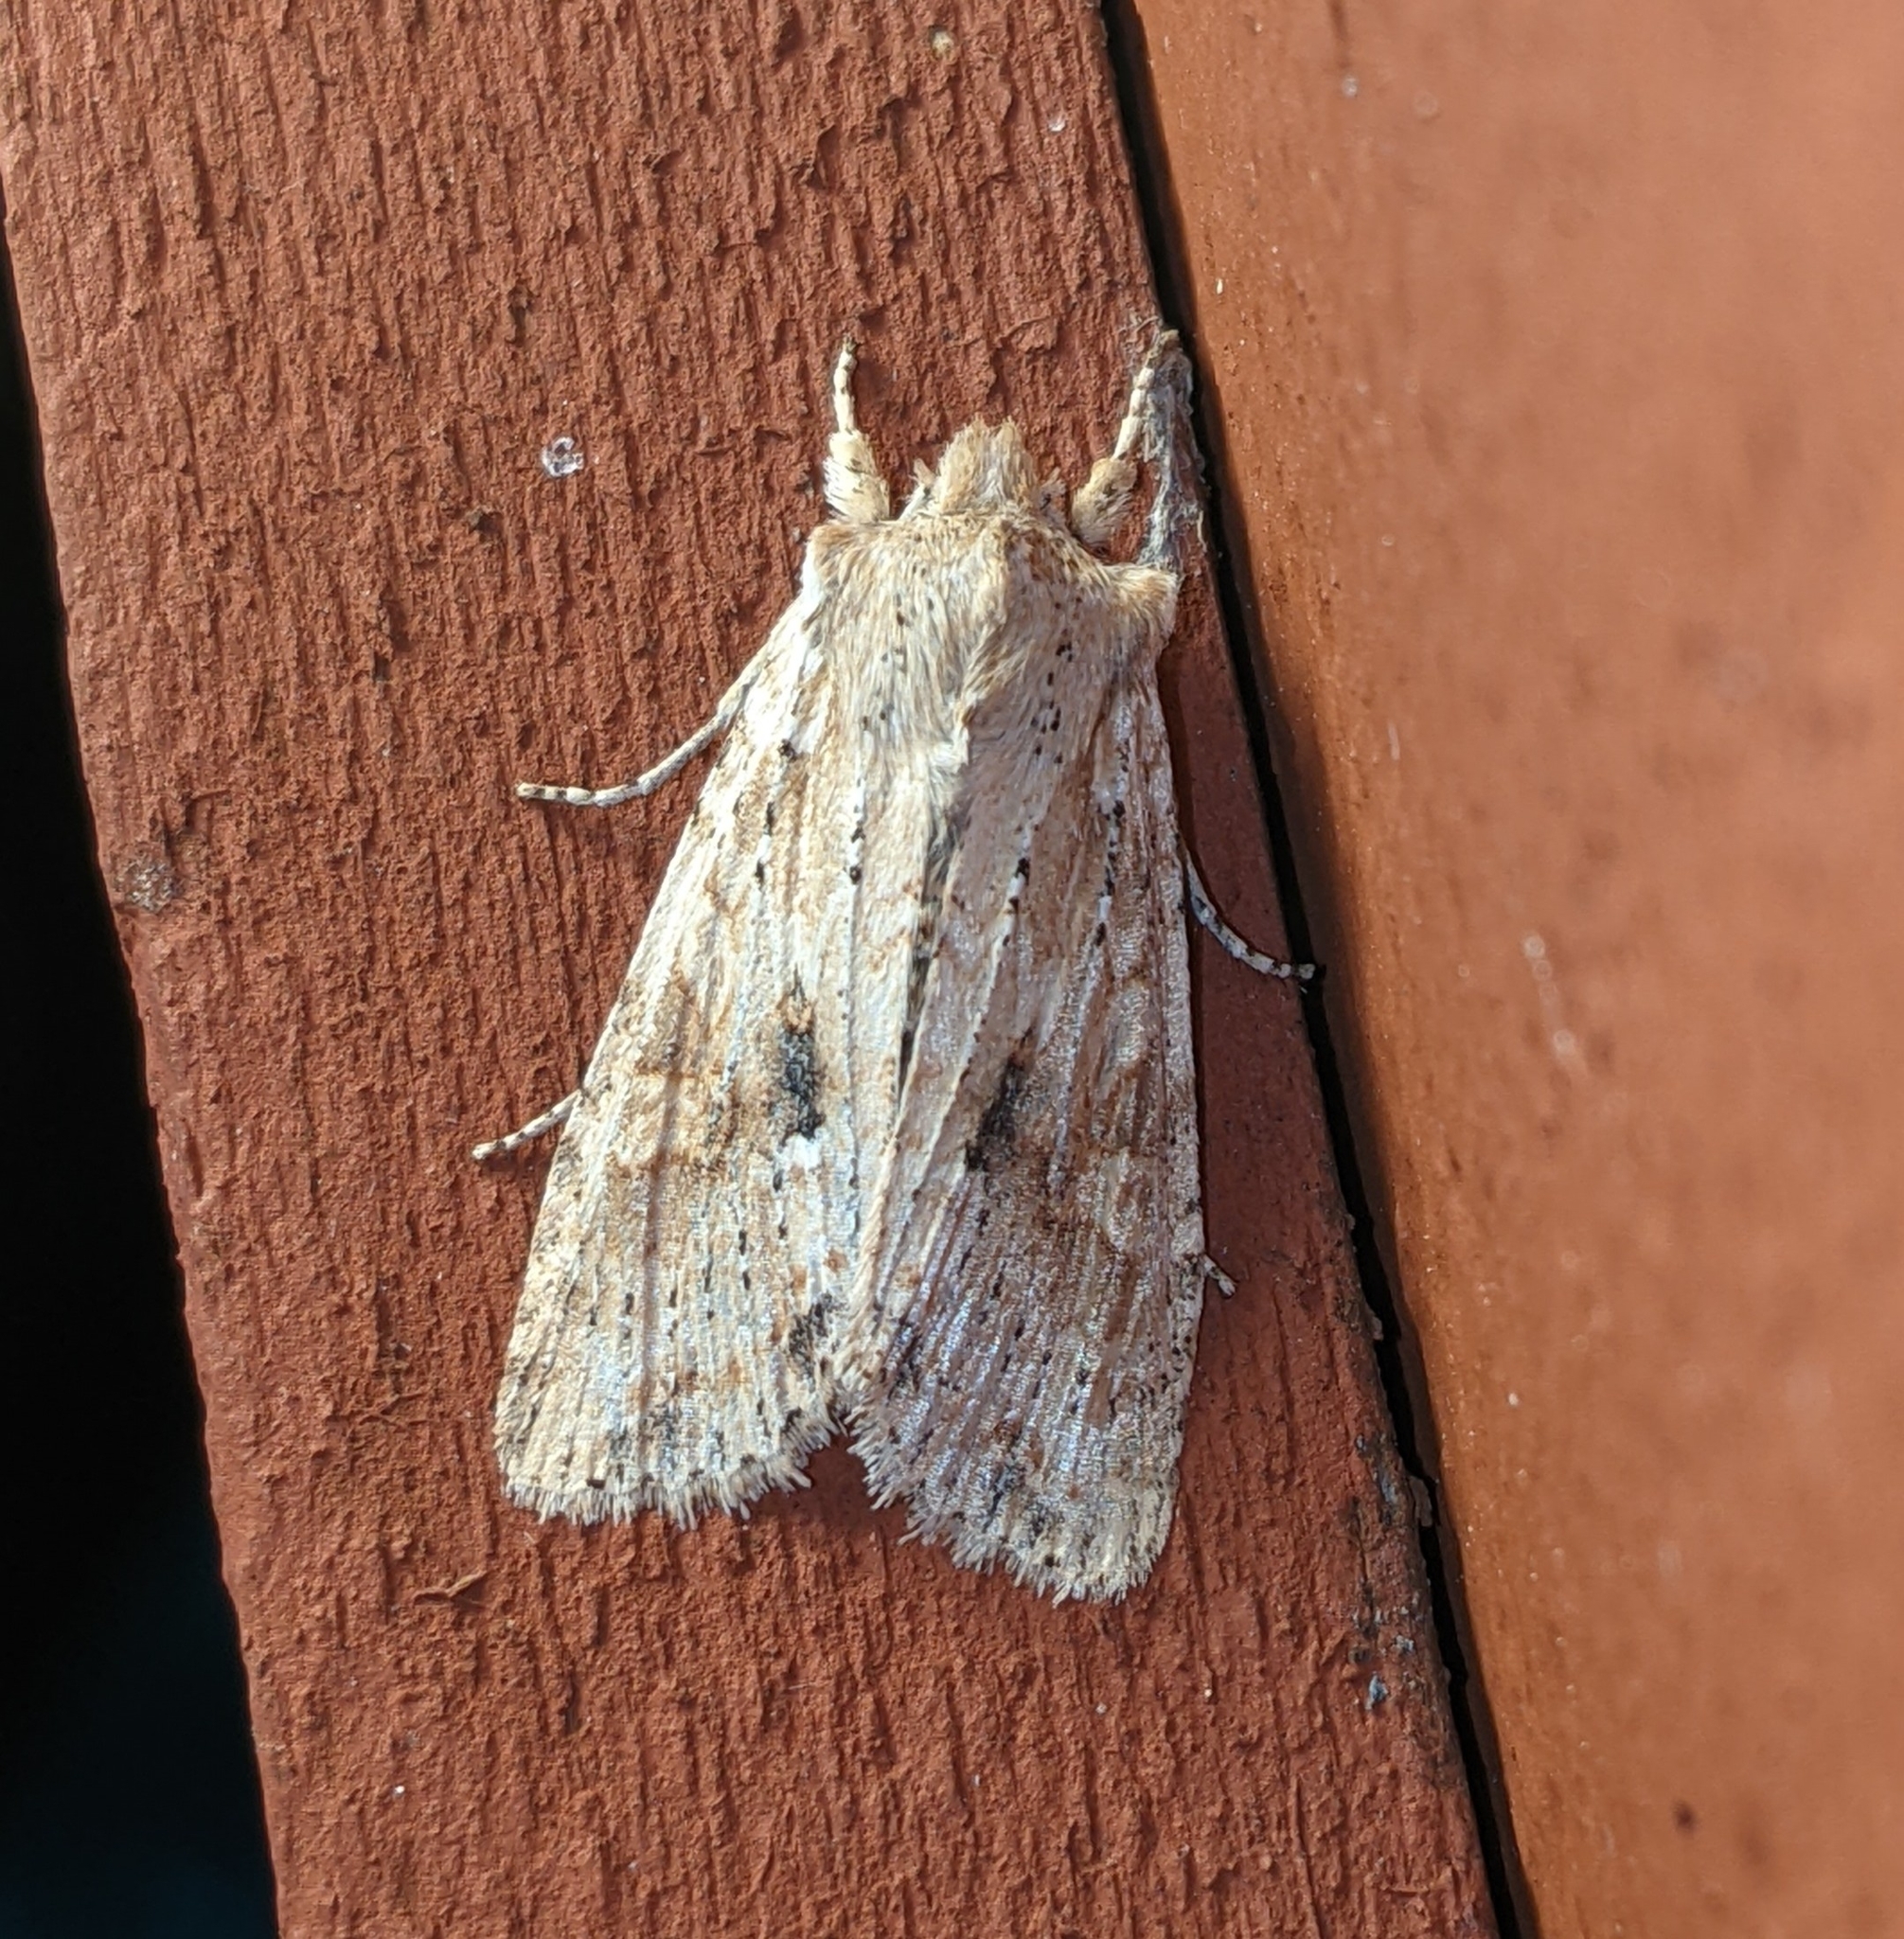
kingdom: Animalia
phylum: Arthropoda
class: Insecta
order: Lepidoptera
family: Noctuidae
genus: Lithophane
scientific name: Lithophane innominata
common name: Nameless pinion moth
